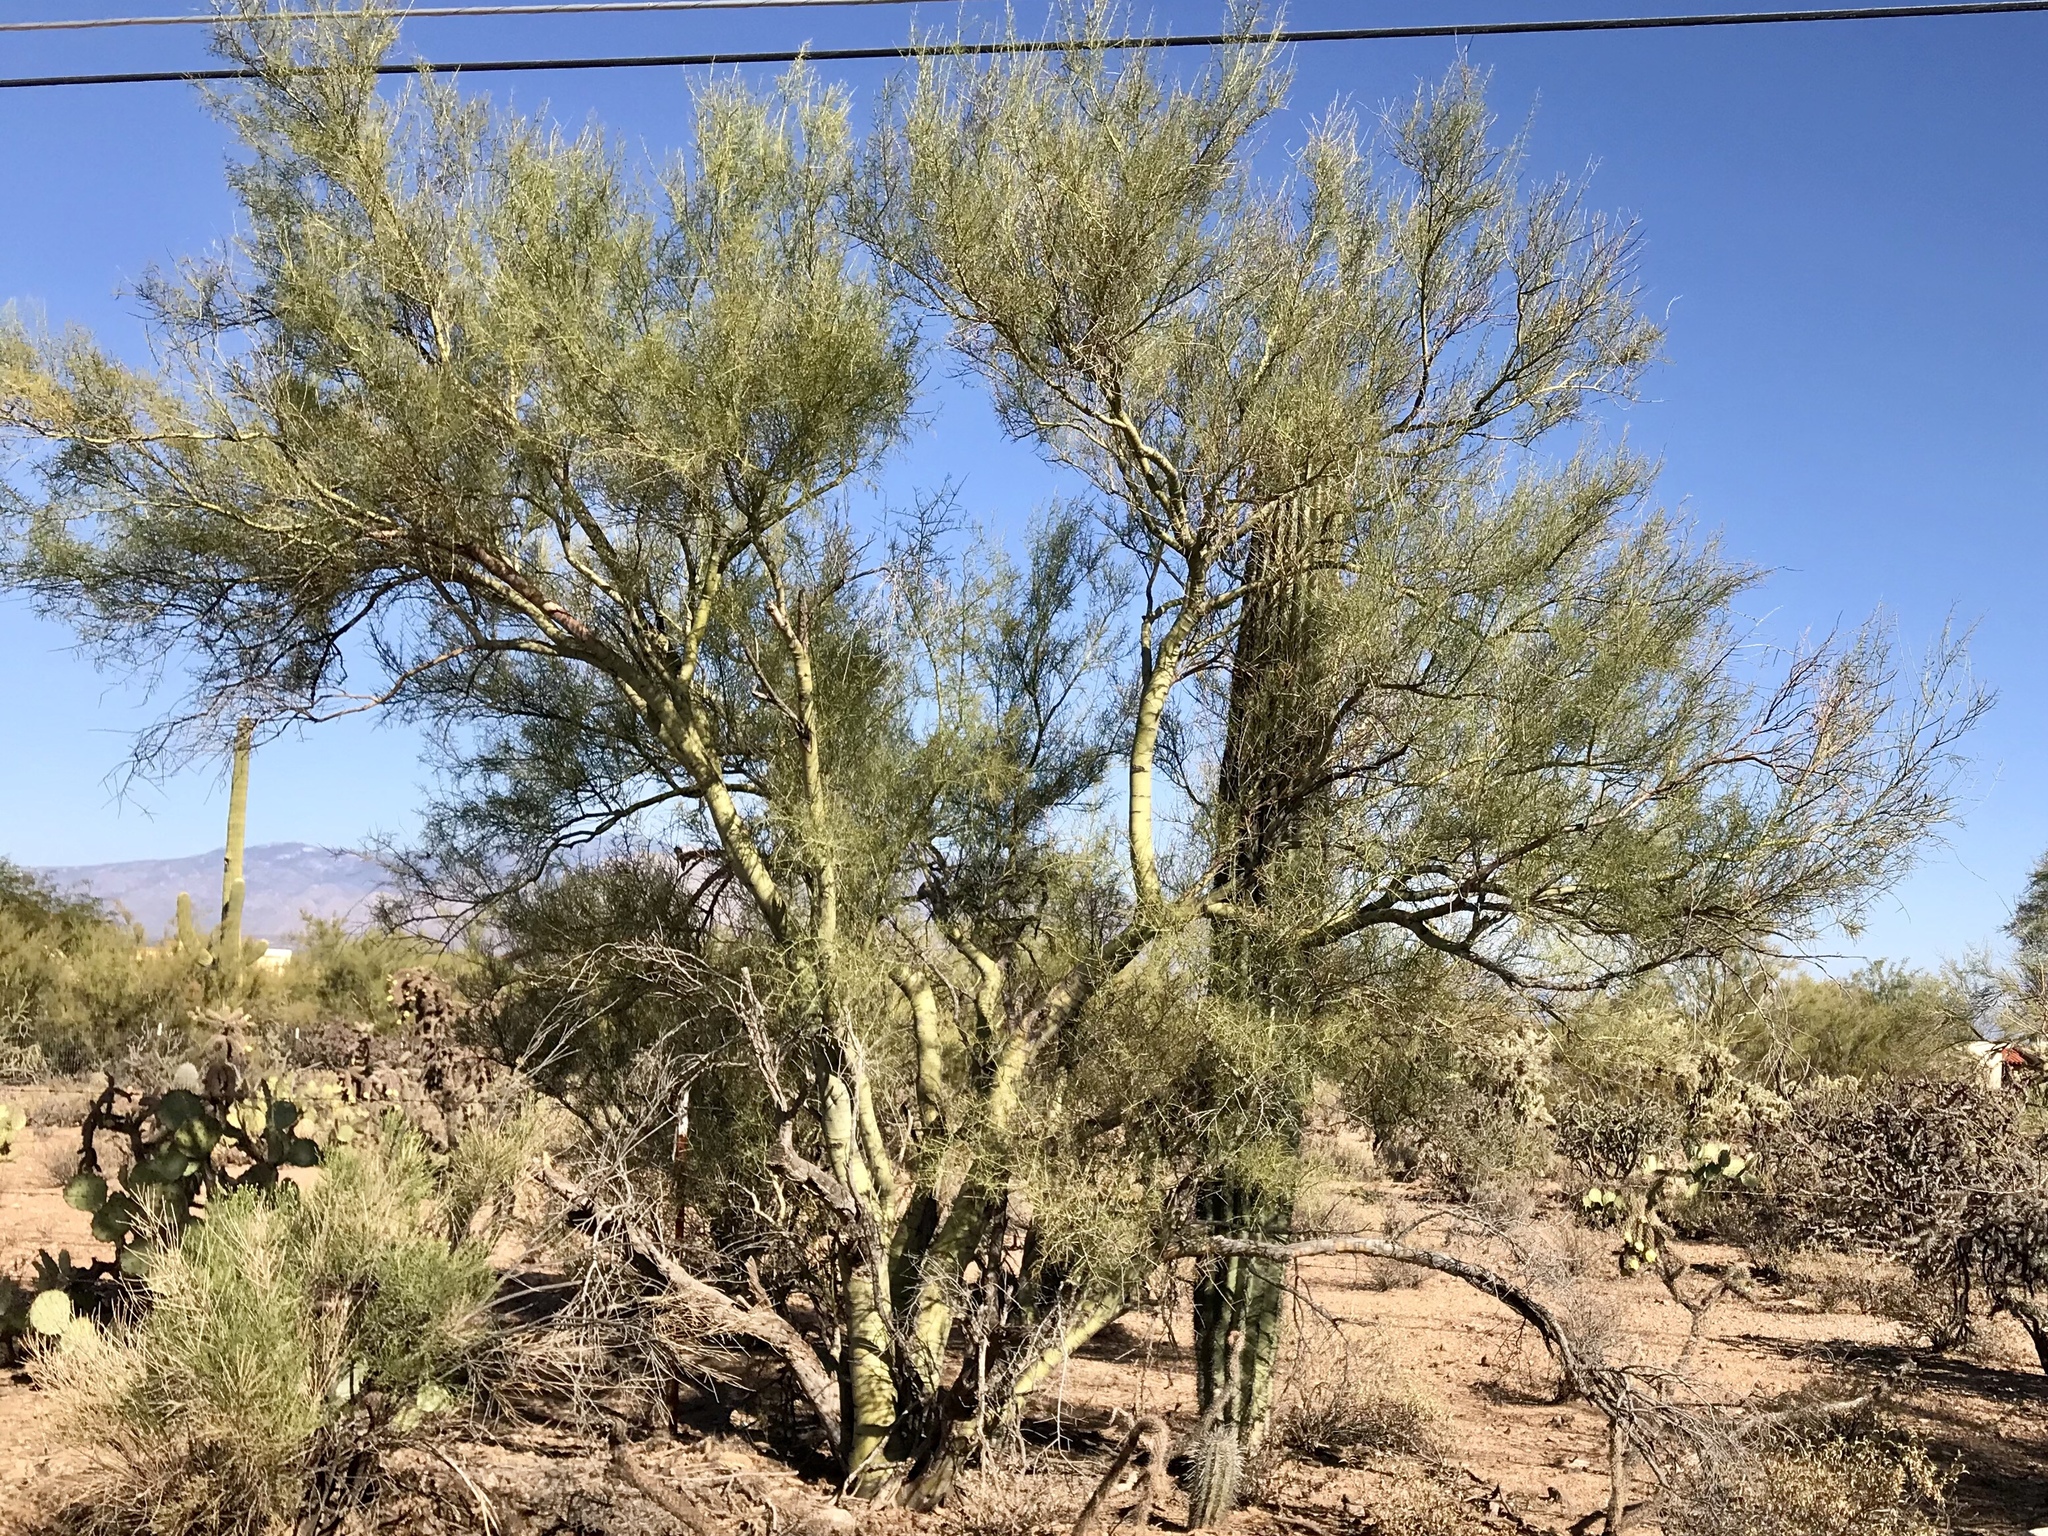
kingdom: Plantae
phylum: Tracheophyta
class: Magnoliopsida
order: Fabales
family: Fabaceae
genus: Parkinsonia
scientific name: Parkinsonia florida
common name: Blue paloverde
